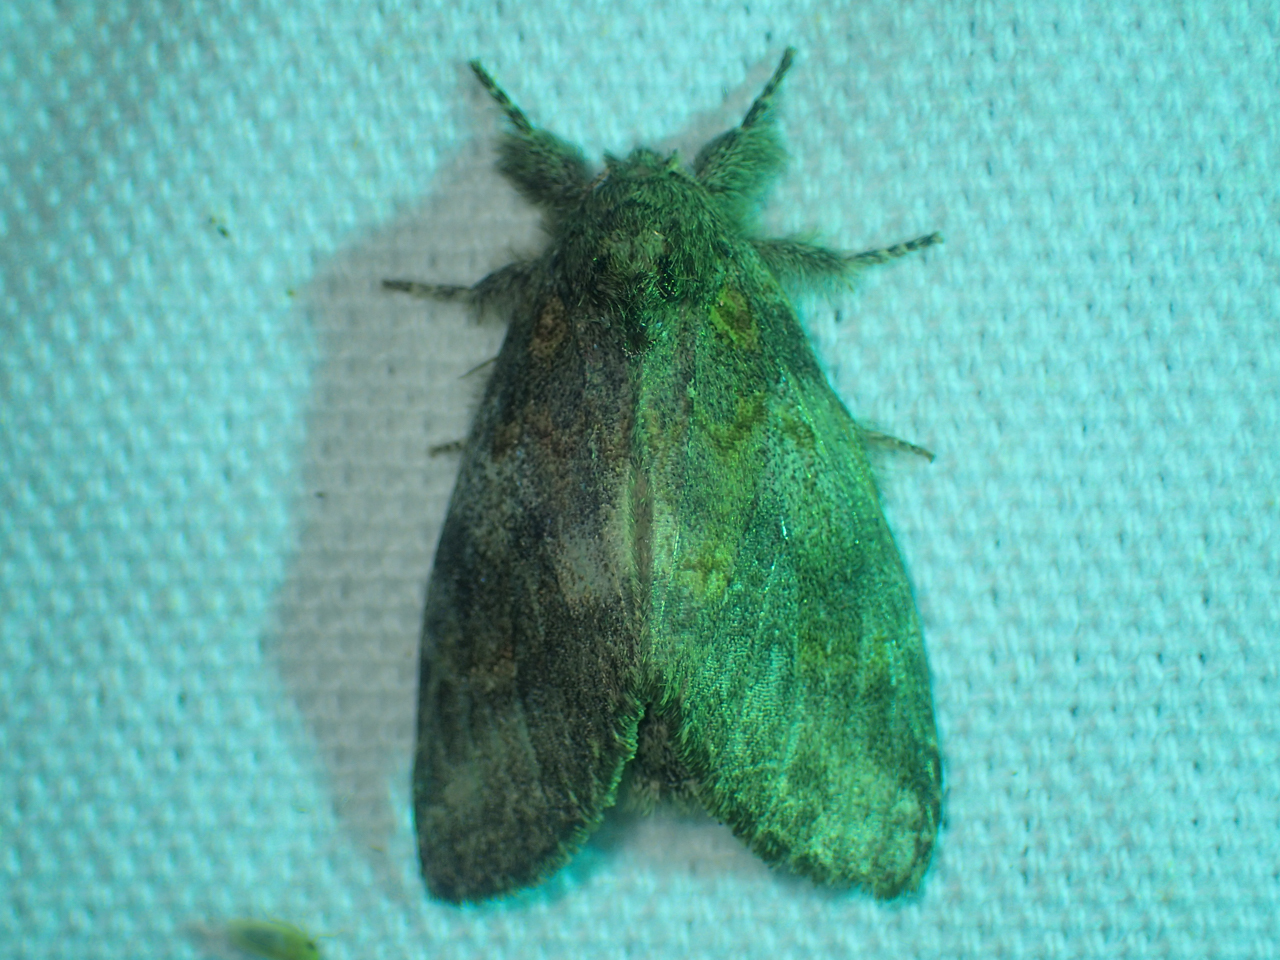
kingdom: Animalia
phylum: Arthropoda
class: Insecta
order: Lepidoptera
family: Notodontidae
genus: Peridea
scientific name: Peridea angulosa
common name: Angulose prominent
